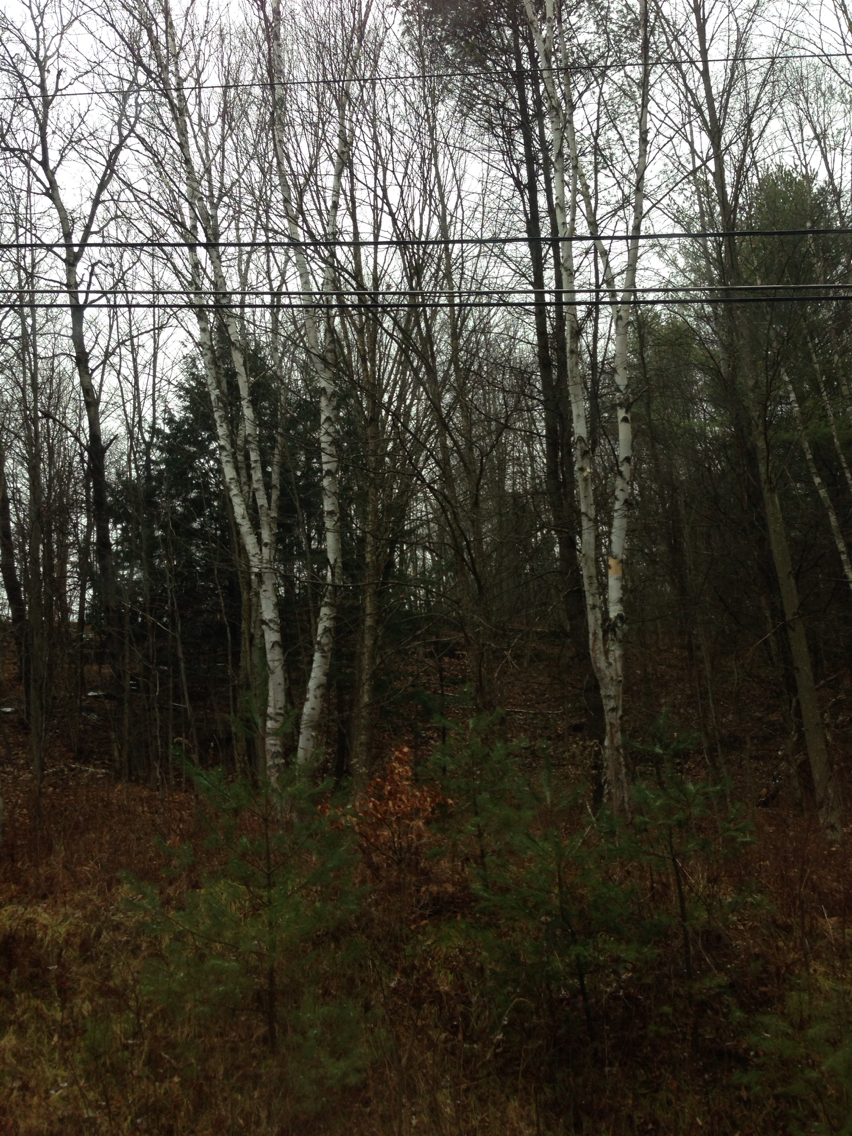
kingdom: Plantae
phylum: Tracheophyta
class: Magnoliopsida
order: Fagales
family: Betulaceae
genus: Betula
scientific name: Betula papyrifera
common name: Paper birch
